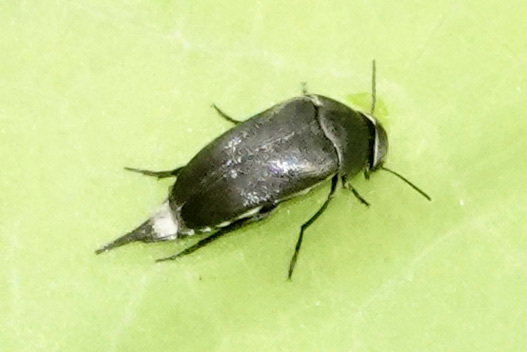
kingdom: Animalia
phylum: Arthropoda
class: Insecta
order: Coleoptera
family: Mordellidae
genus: Mordella
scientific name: Mordella lunulata
